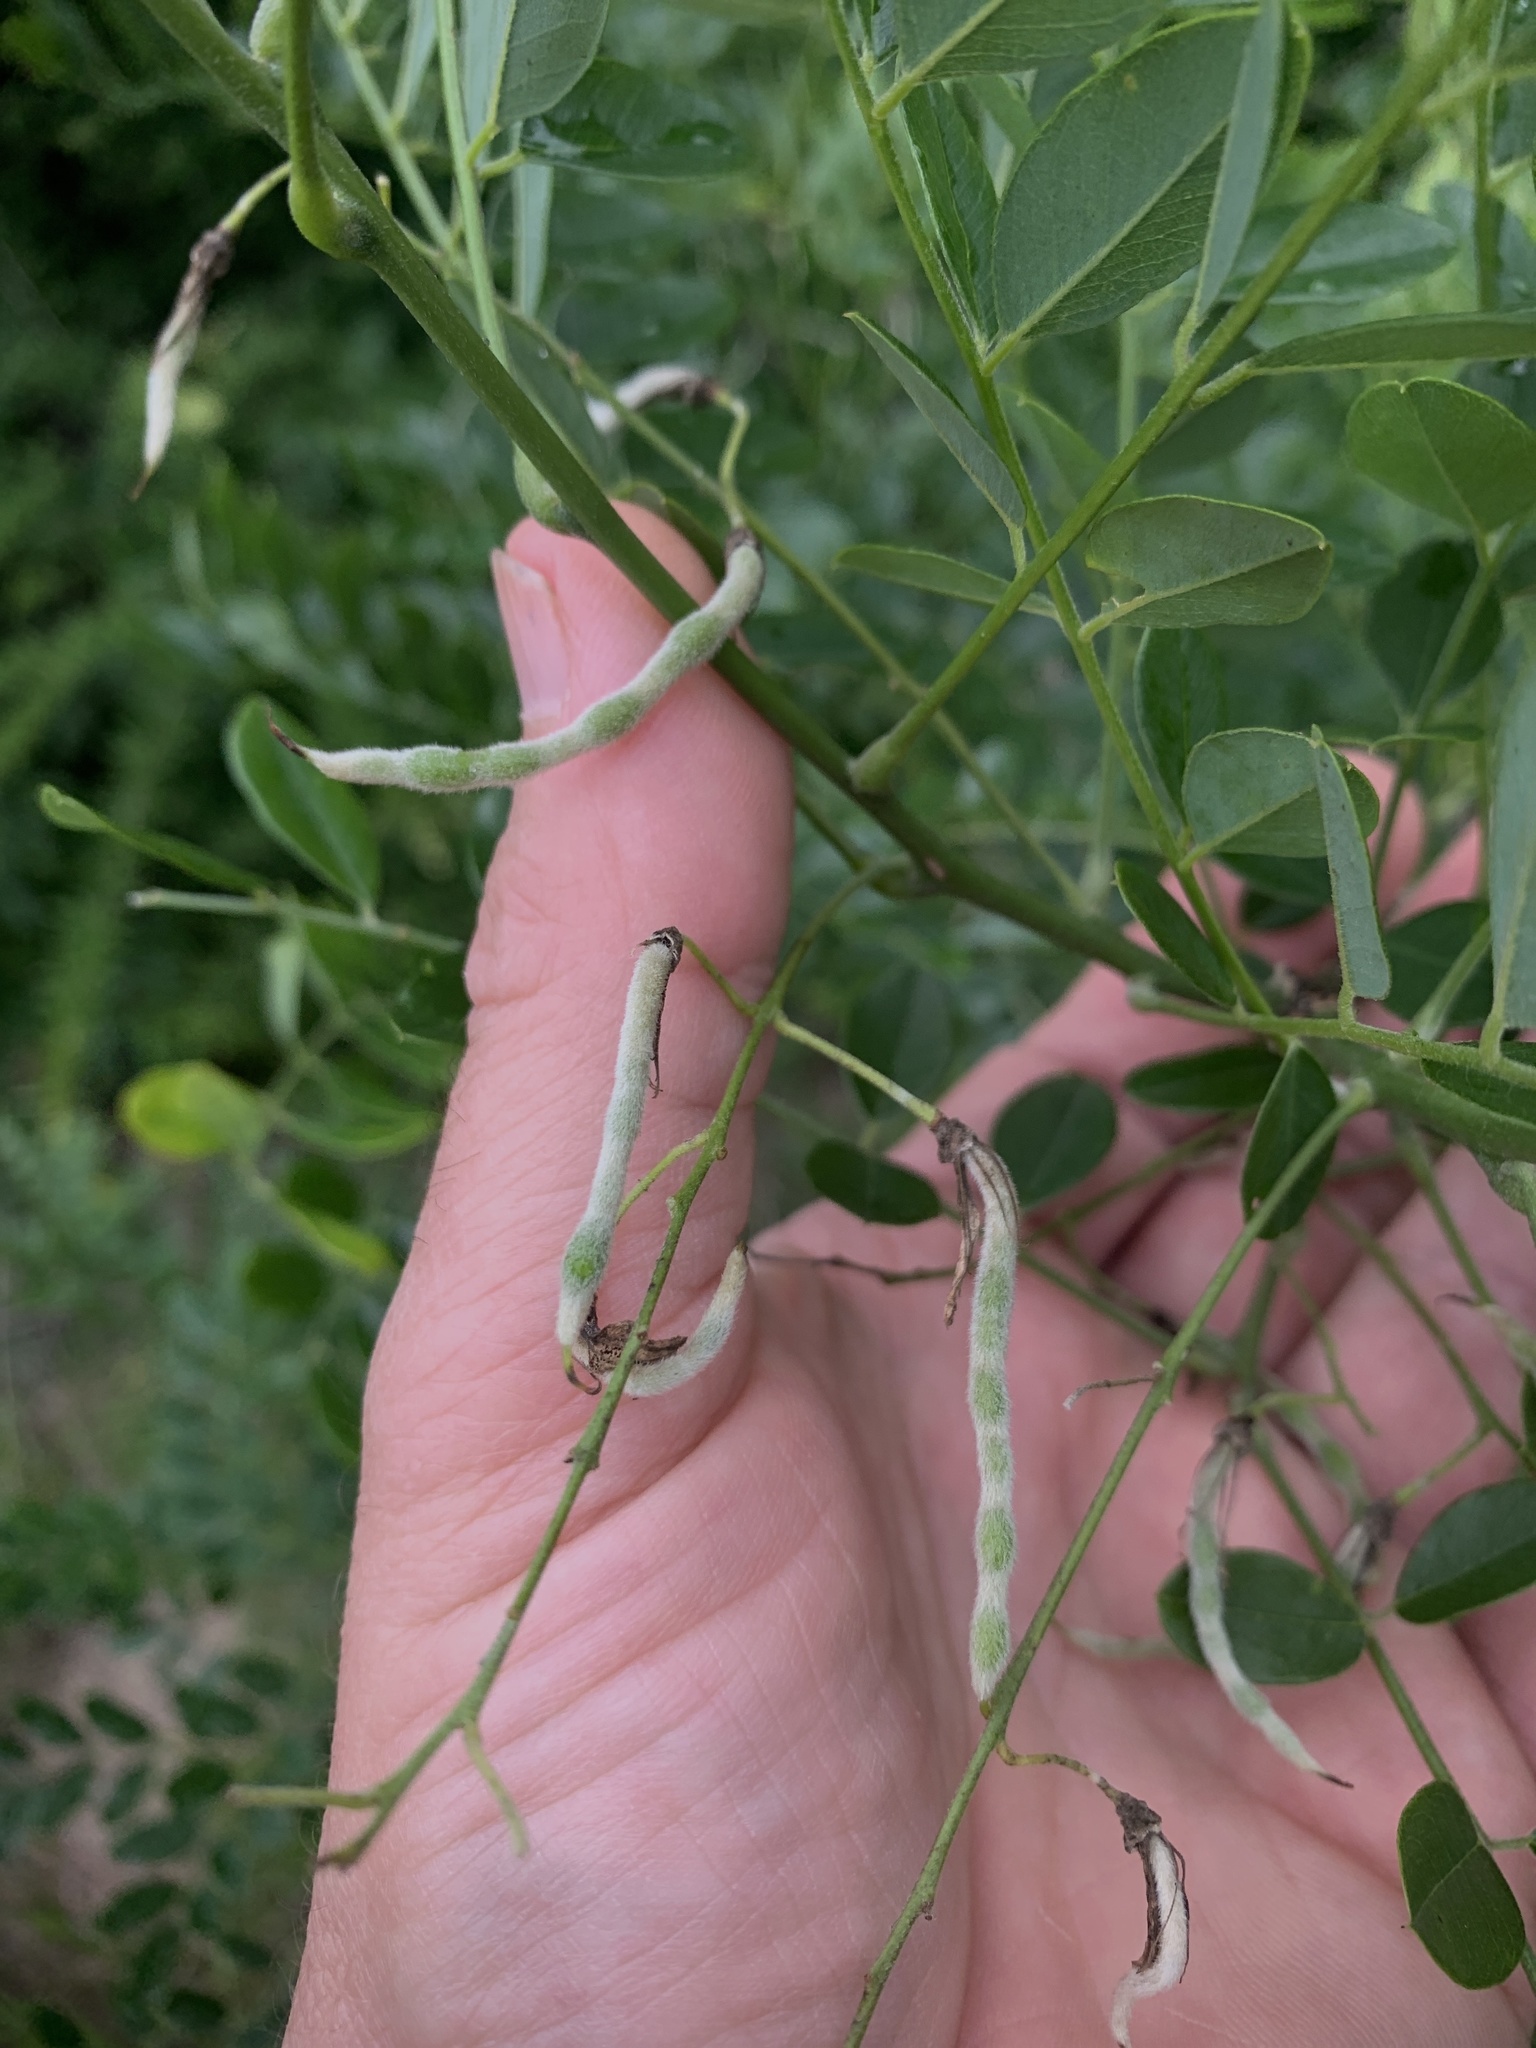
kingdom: Plantae
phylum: Tracheophyta
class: Magnoliopsida
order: Fabales
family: Fabaceae
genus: Prosopis
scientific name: Prosopis glandulosa
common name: Honey mesquite
